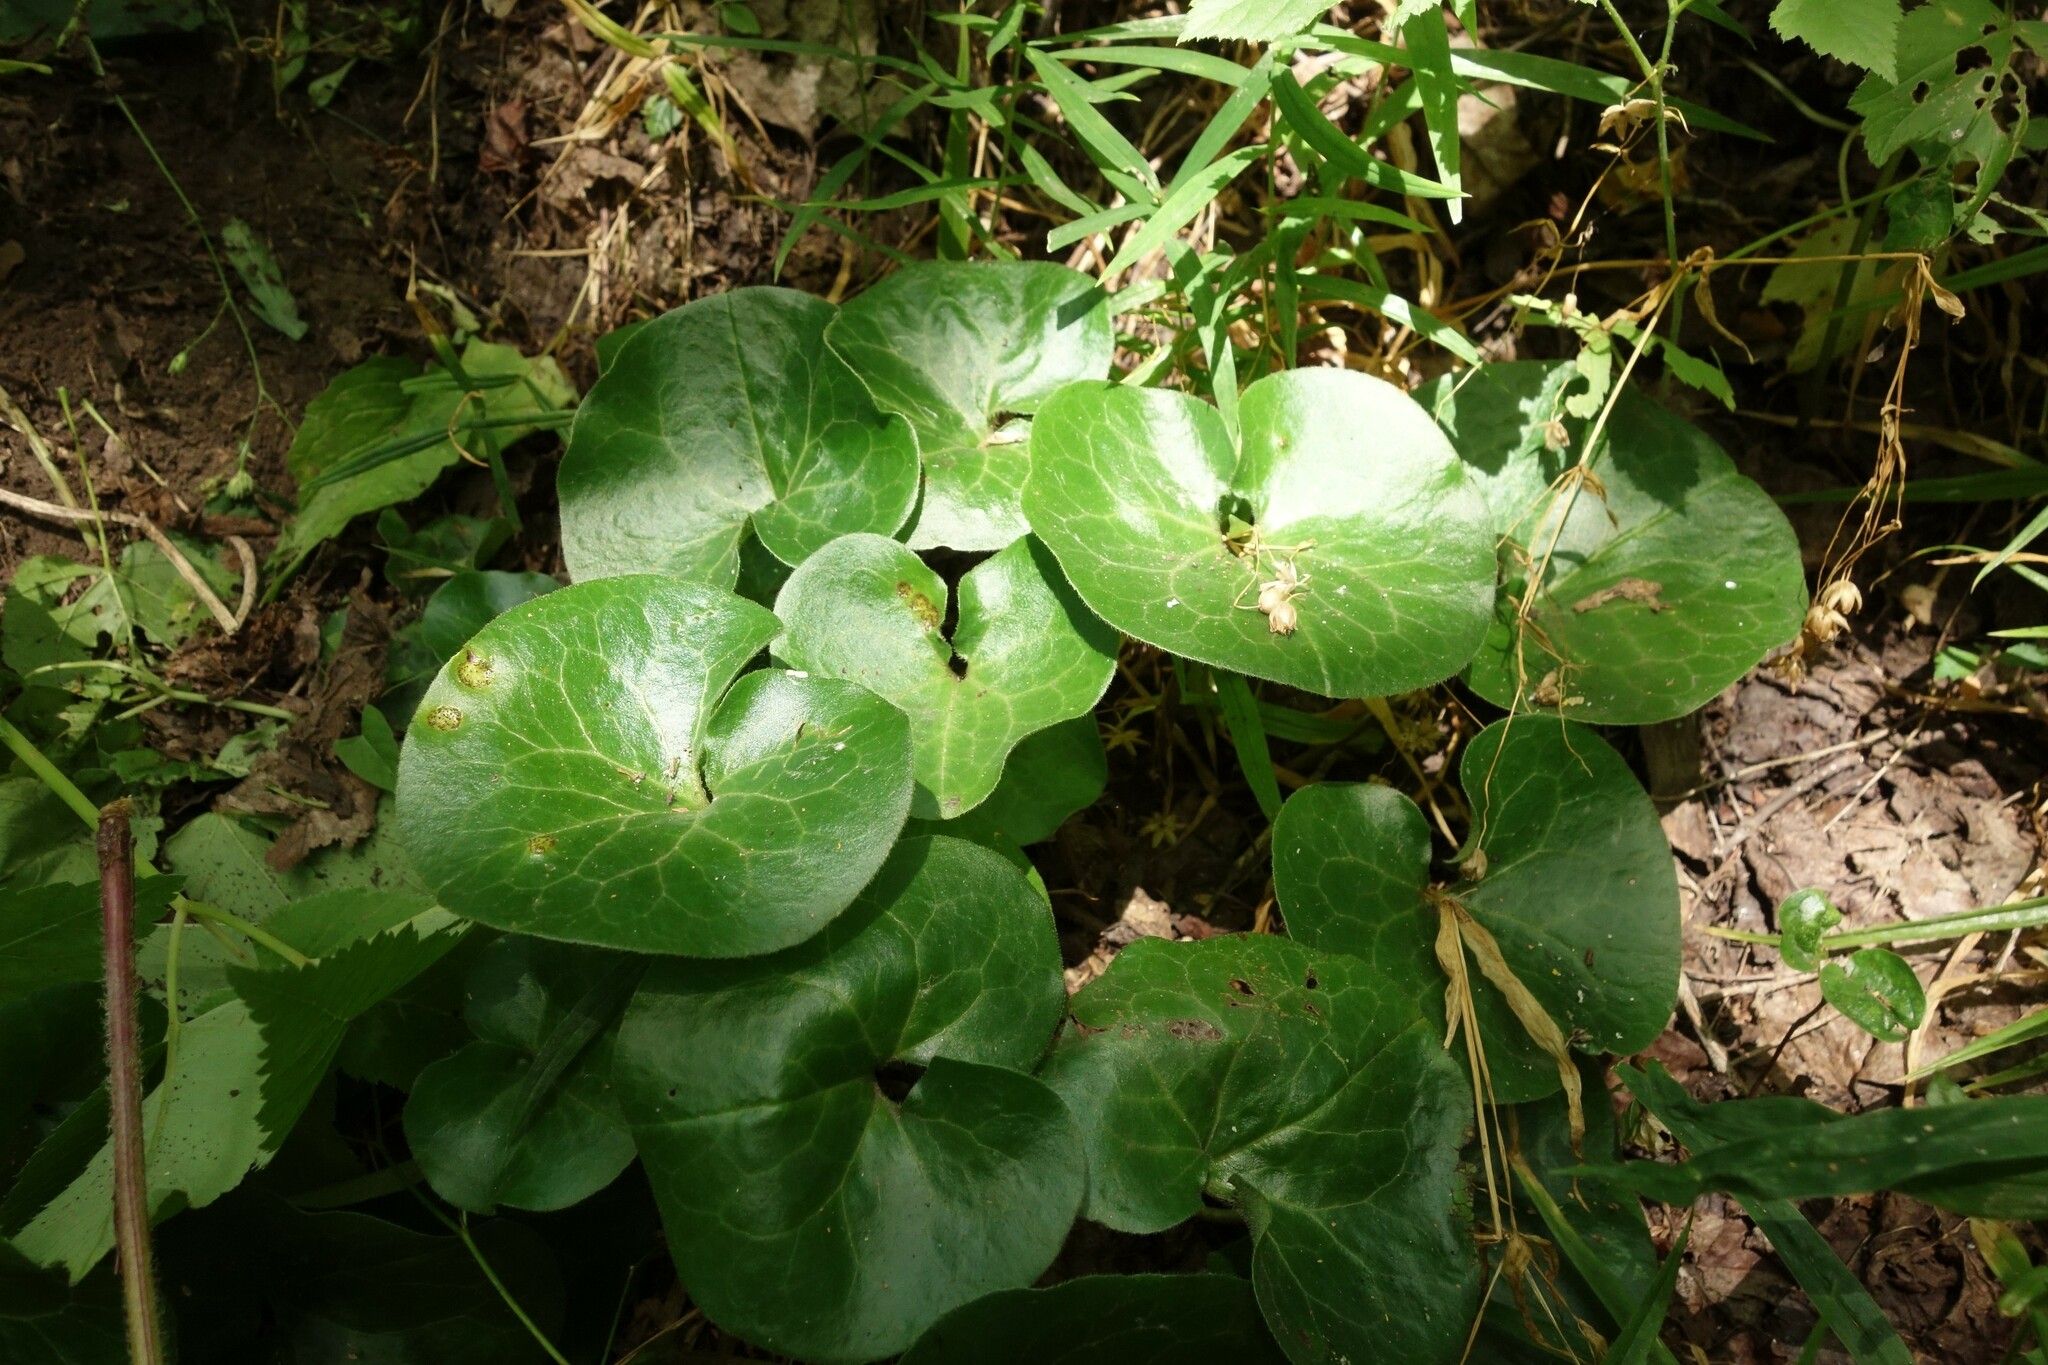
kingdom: Plantae
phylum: Tracheophyta
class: Magnoliopsida
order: Piperales
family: Aristolochiaceae
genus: Asarum
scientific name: Asarum europaeum
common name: Asarabacca
